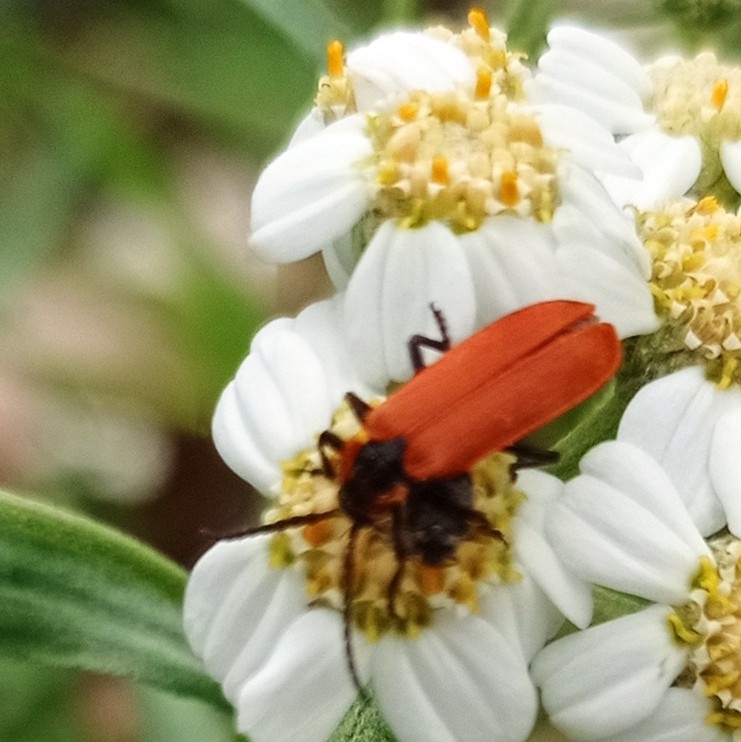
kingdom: Animalia
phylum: Arthropoda
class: Insecta
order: Coleoptera
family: Lycidae
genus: Lygistopterus
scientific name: Lygistopterus sanguineus
